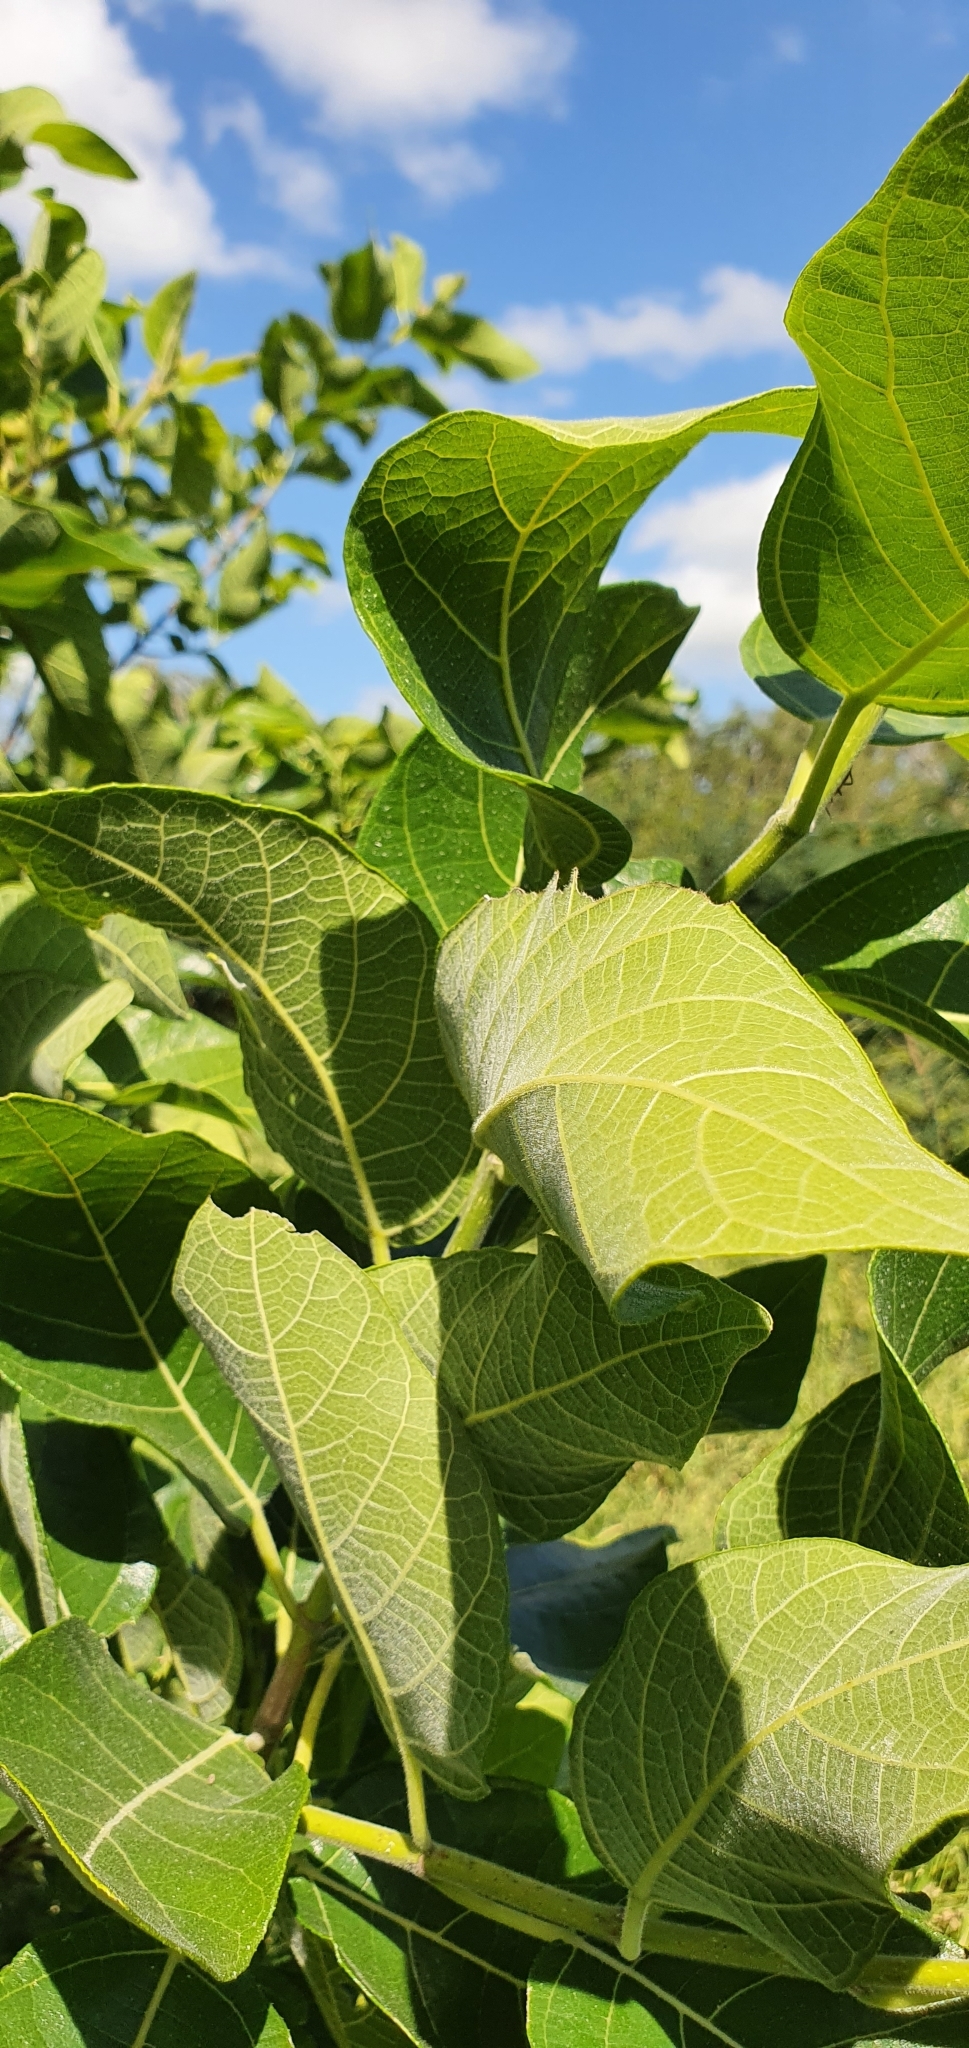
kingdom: Plantae
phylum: Tracheophyta
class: Magnoliopsida
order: Rosales
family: Moraceae
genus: Ficus
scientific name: Ficus opposita
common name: Figwood
